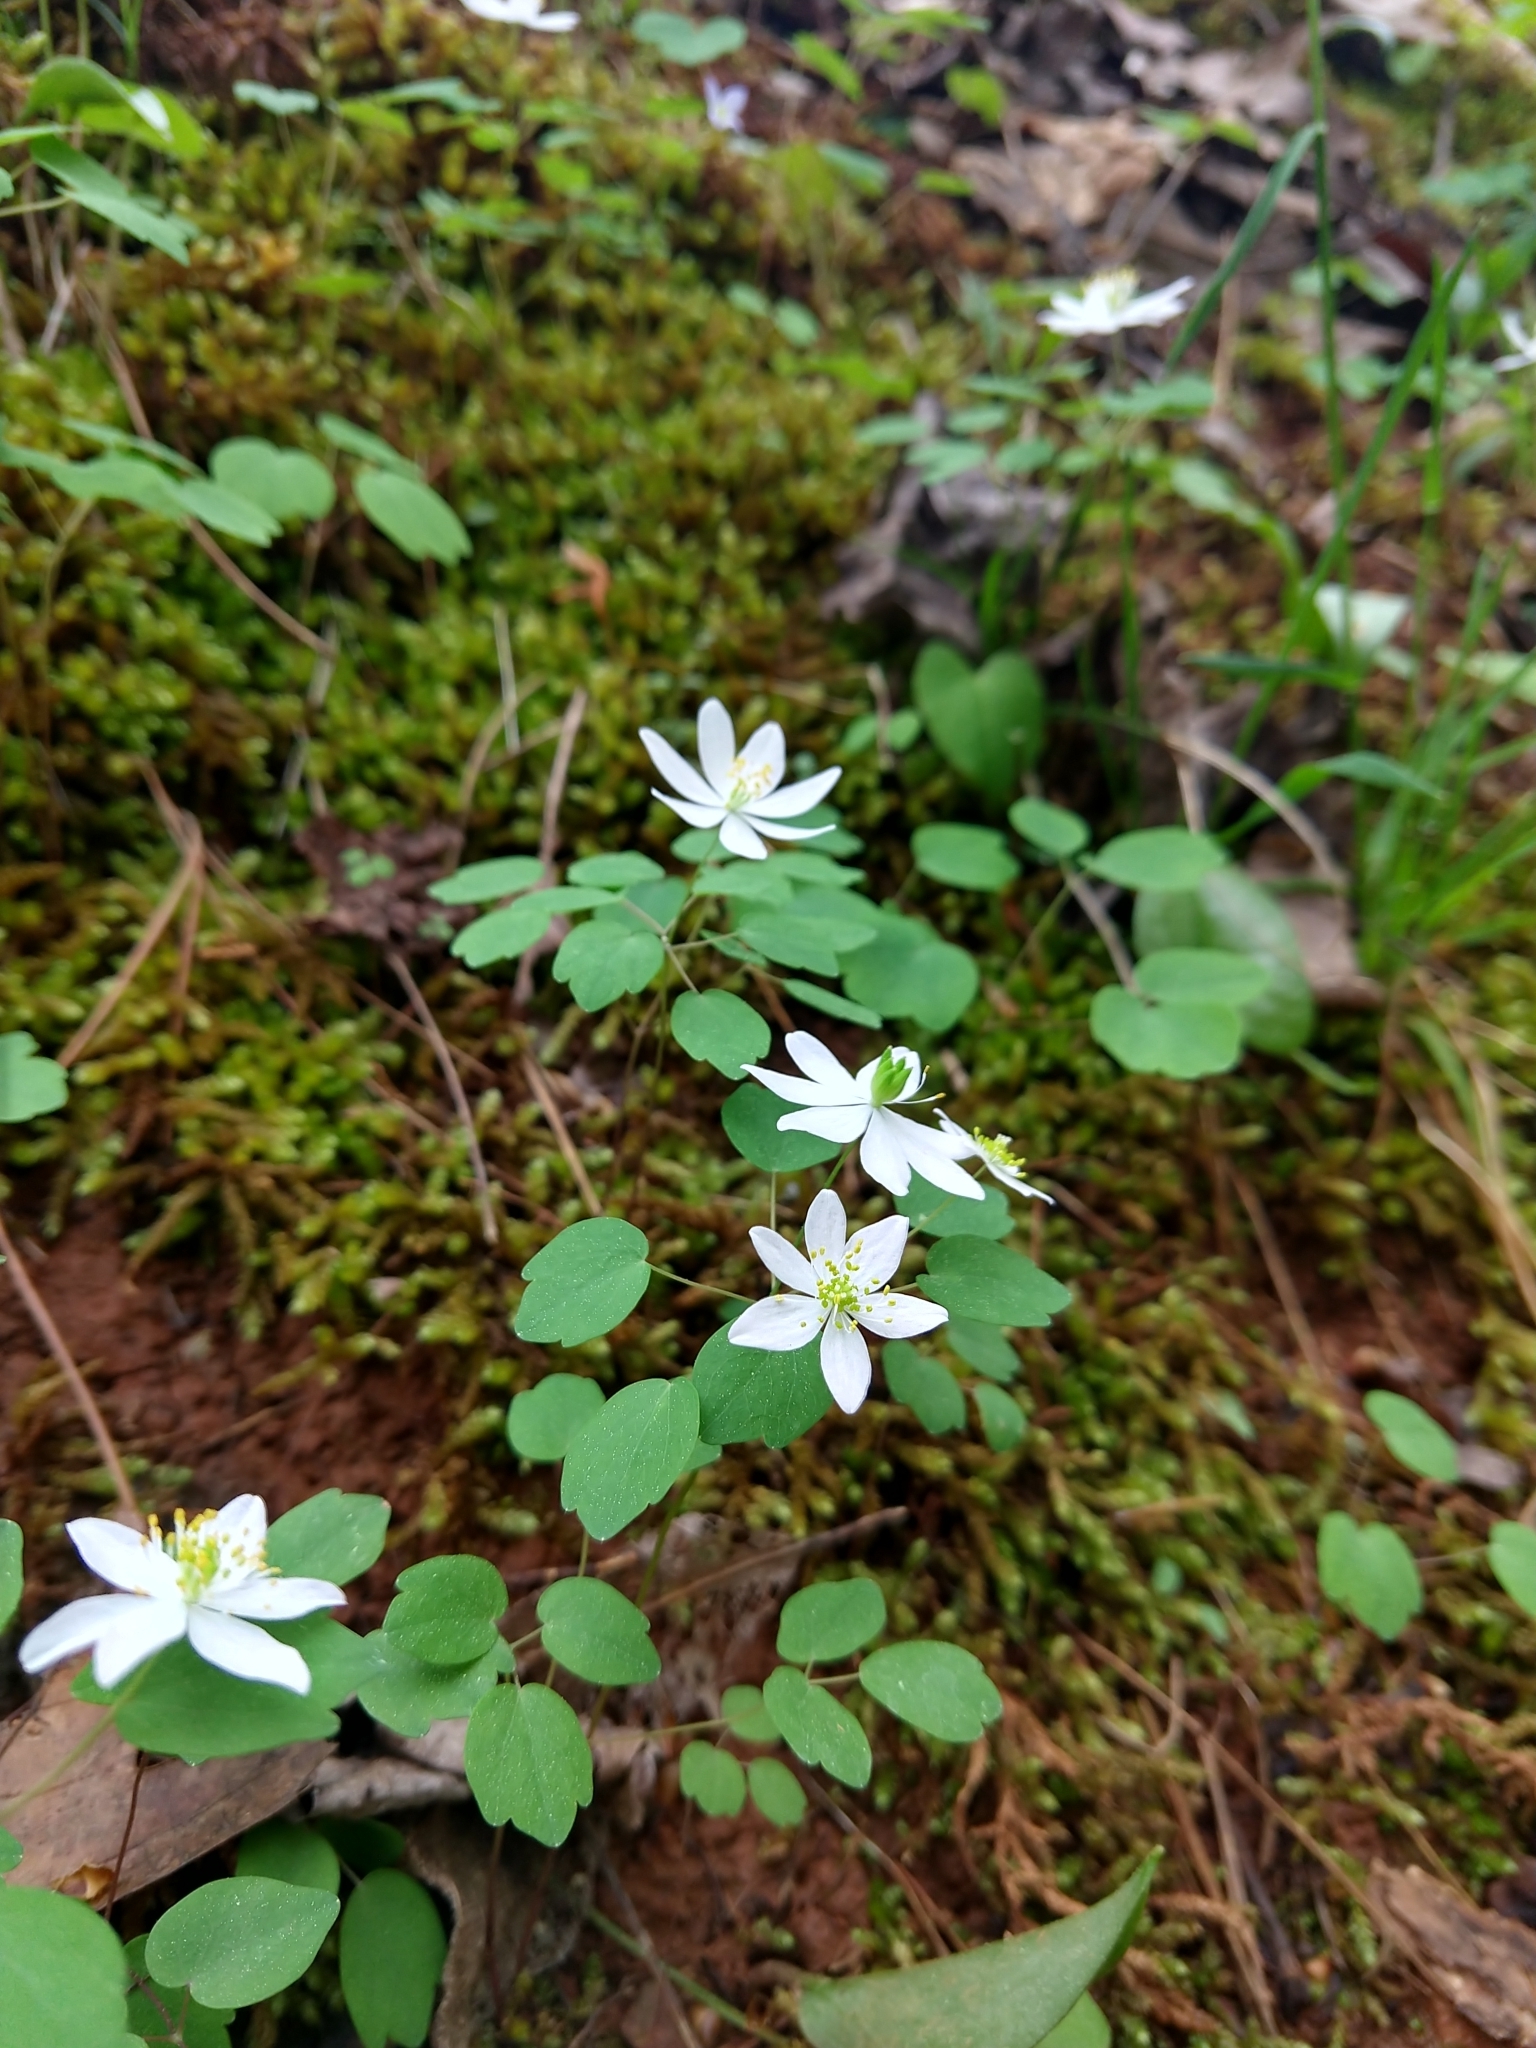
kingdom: Plantae
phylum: Tracheophyta
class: Magnoliopsida
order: Ranunculales
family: Ranunculaceae
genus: Thalictrum
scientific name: Thalictrum thalictroides
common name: Rue-anemone
